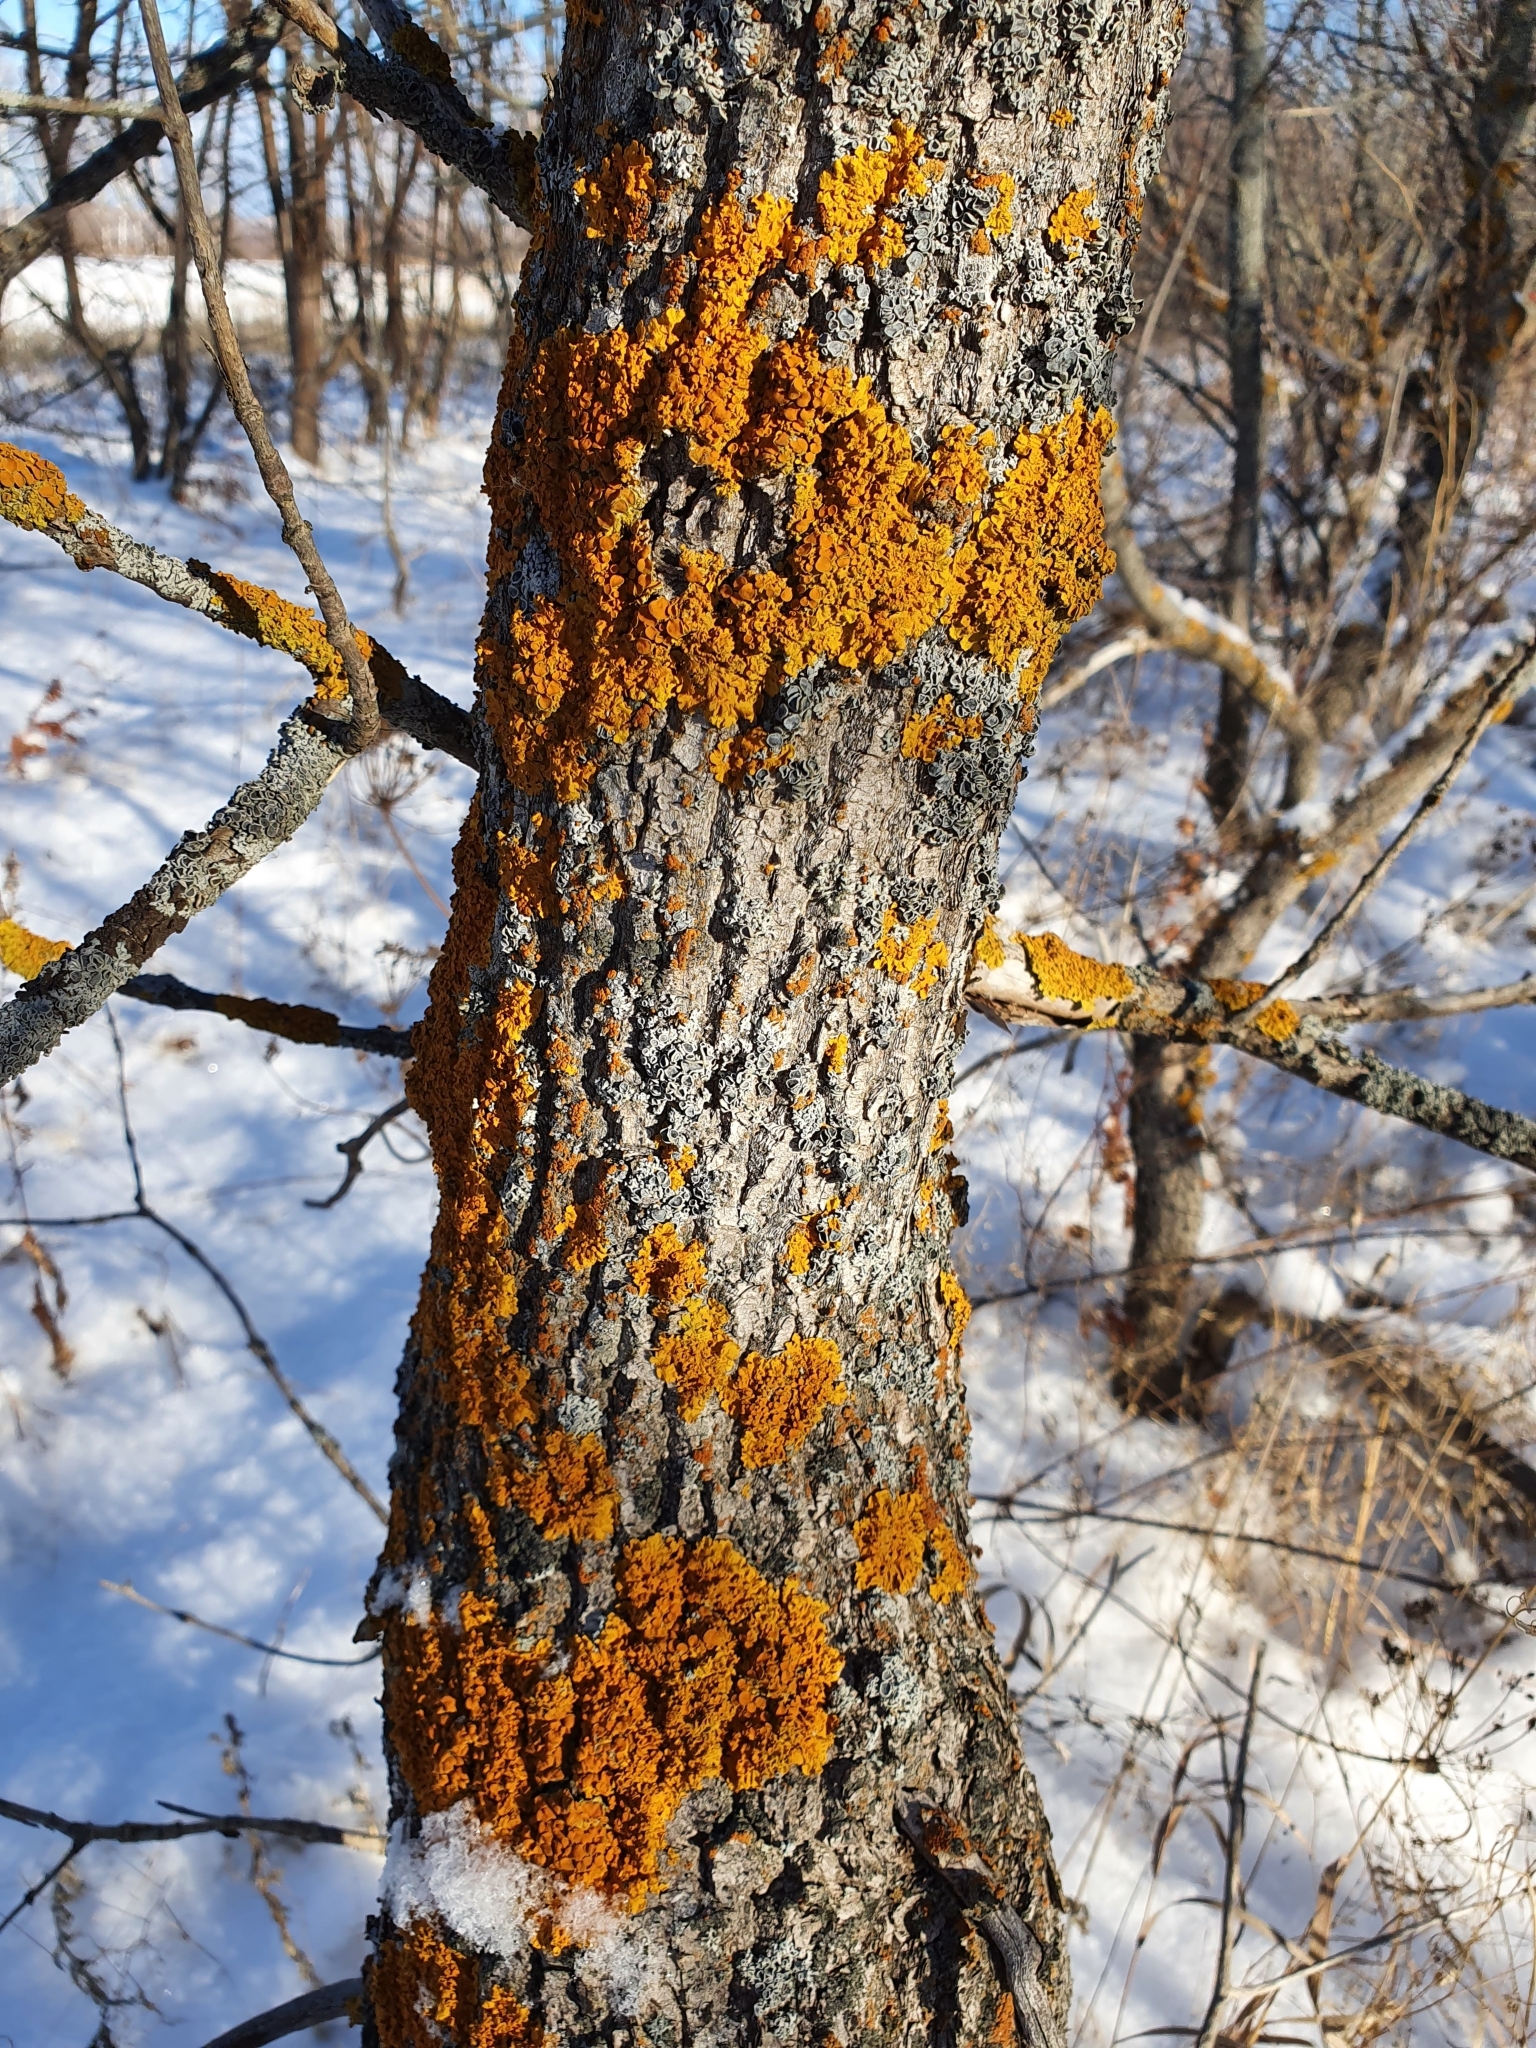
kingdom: Fungi
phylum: Ascomycota
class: Lecanoromycetes
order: Teloschistales
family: Teloschistaceae
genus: Xanthoria
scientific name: Xanthoria parietina
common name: Common orange lichen
